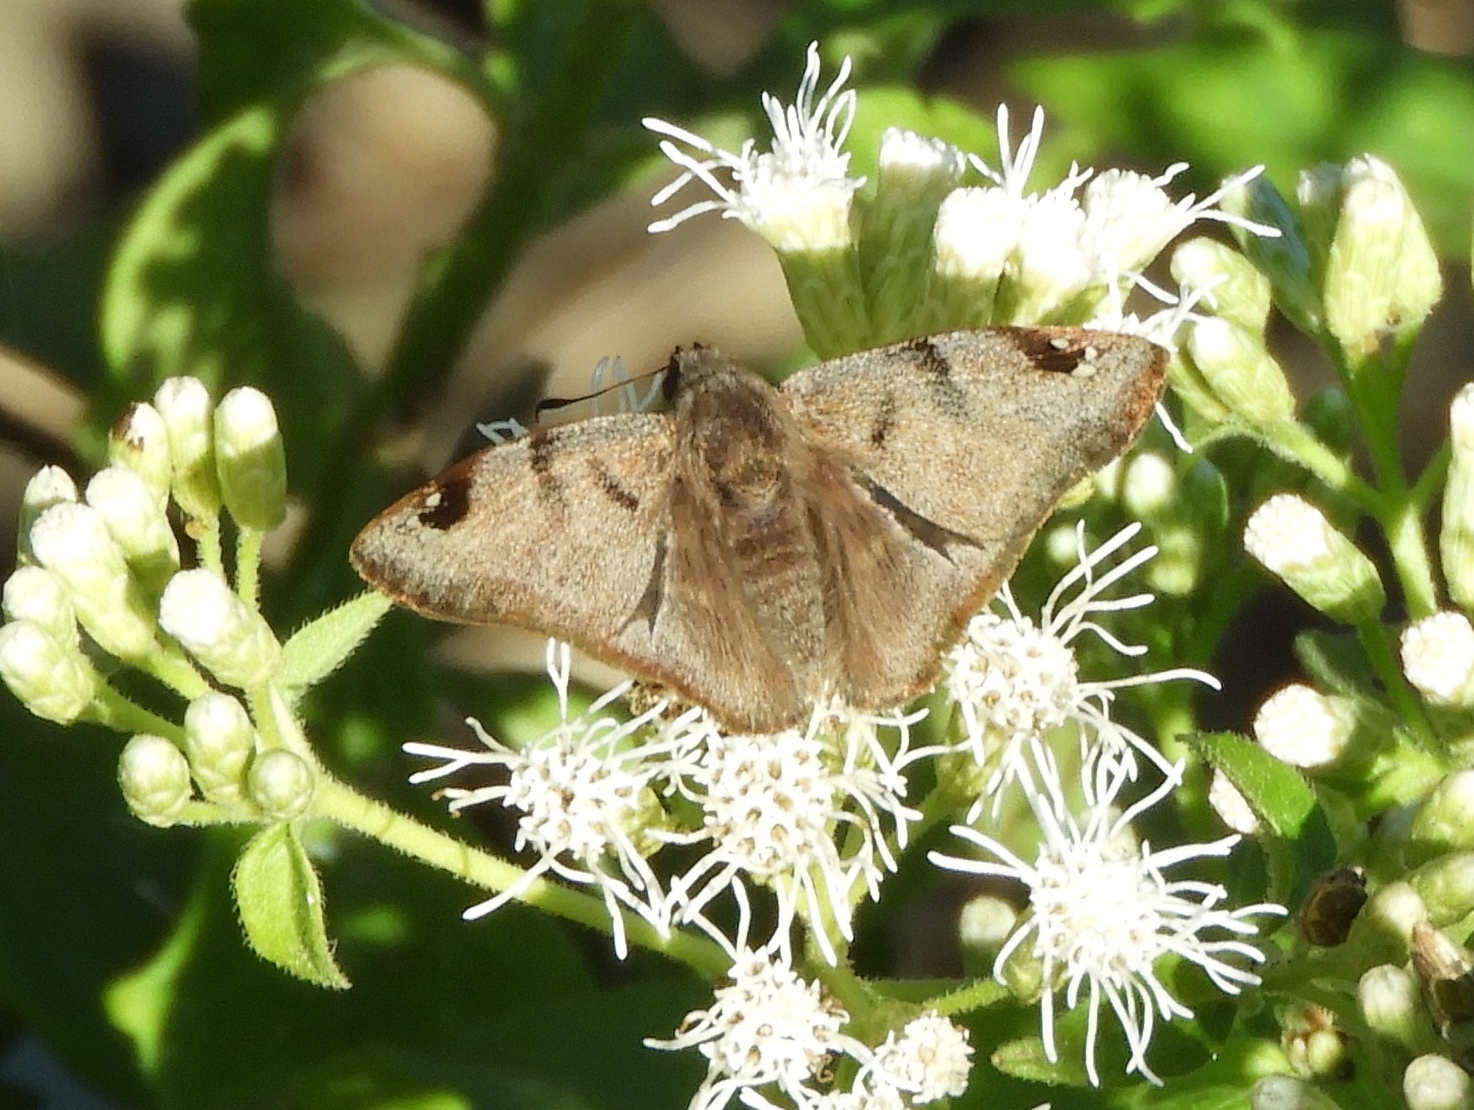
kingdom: Animalia
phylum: Arthropoda
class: Insecta
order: Lepidoptera
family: Hesperiidae
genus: Arteurotia
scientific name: Arteurotia tractipennis
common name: Starred skipper
